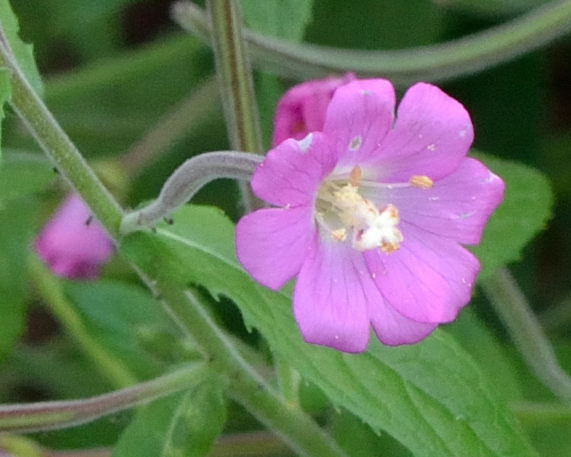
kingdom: Plantae
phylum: Tracheophyta
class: Magnoliopsida
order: Myrtales
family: Onagraceae
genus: Epilobium
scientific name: Epilobium hirsutum
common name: Great willowherb
